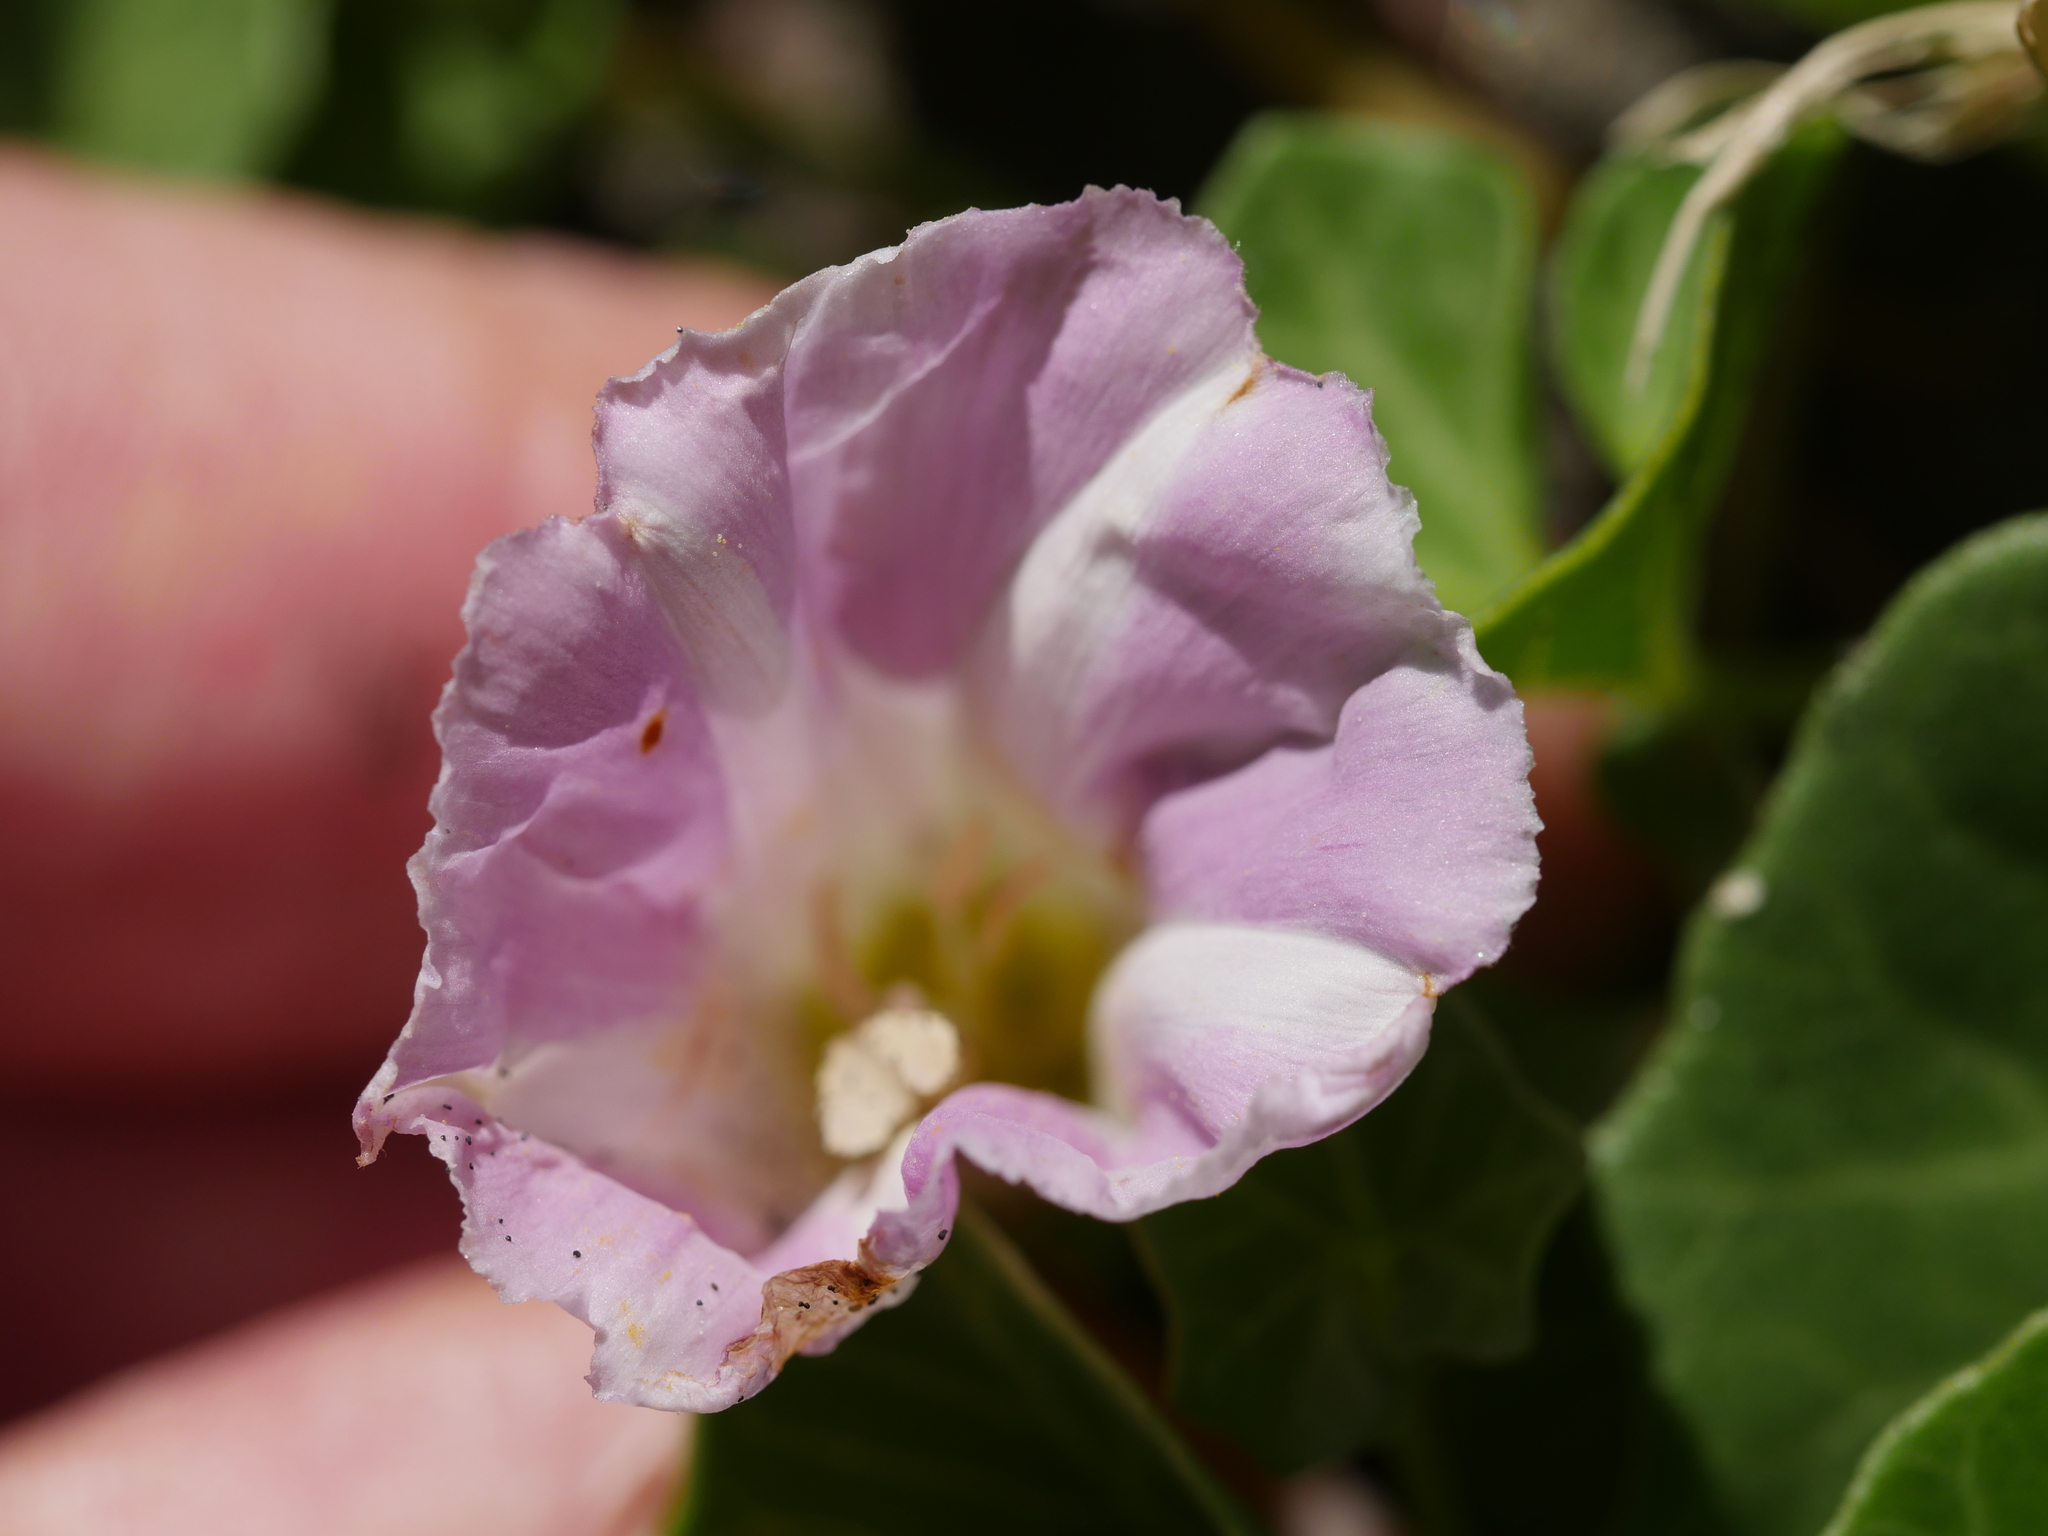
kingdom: Plantae
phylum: Tracheophyta
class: Magnoliopsida
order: Solanales
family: Convolvulaceae
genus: Calystegia
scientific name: Calystegia soldanella
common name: Sea bindweed
